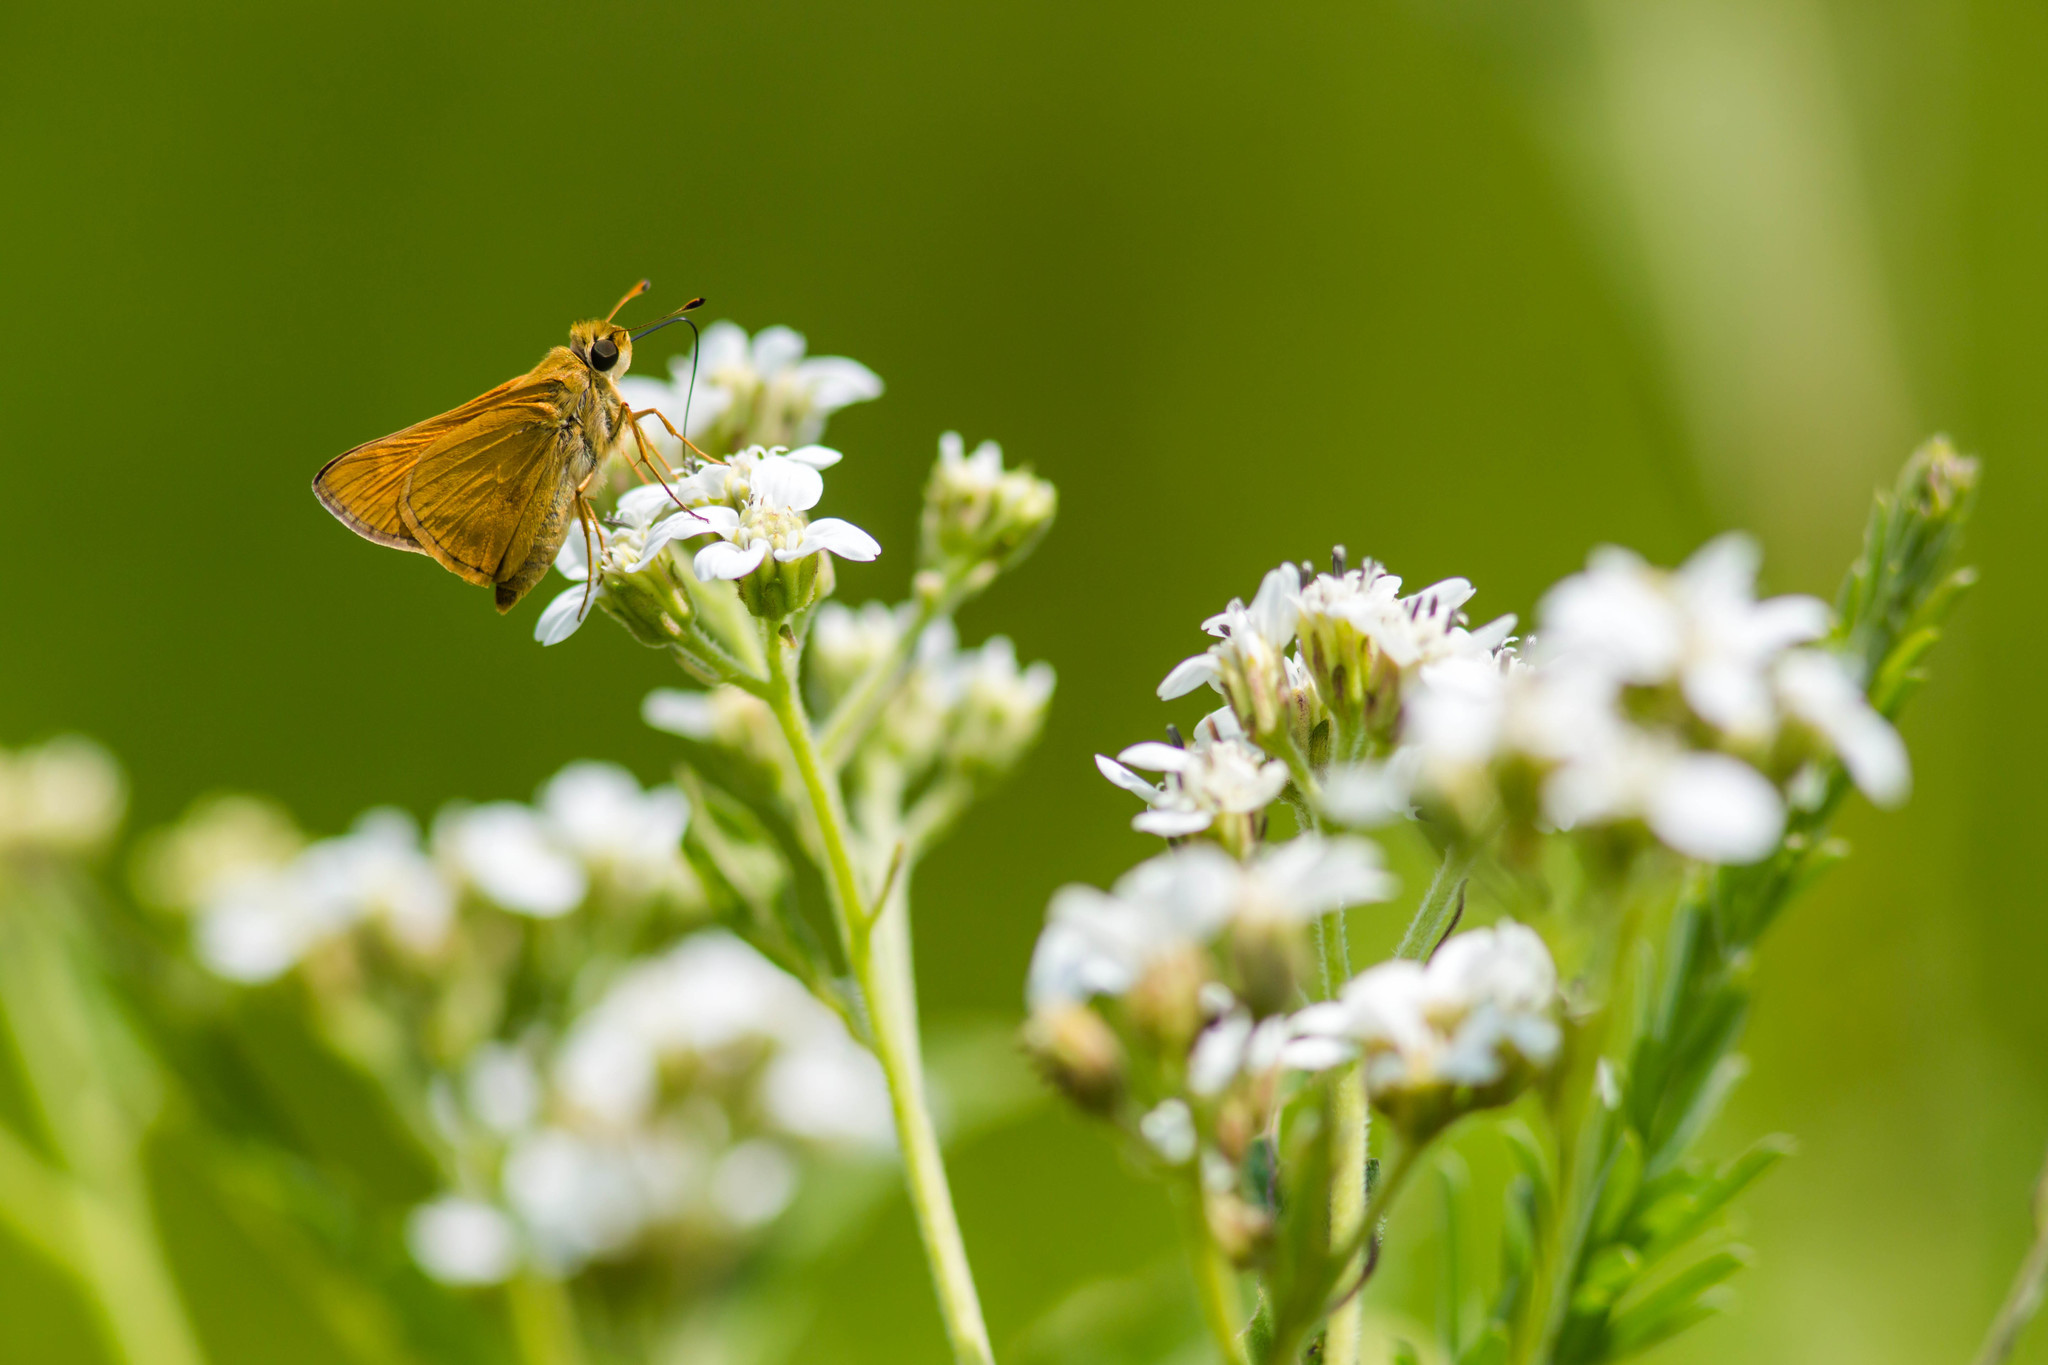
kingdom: Animalia
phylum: Arthropoda
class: Insecta
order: Lepidoptera
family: Hesperiidae
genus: Atalopedes
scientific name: Atalopedes
